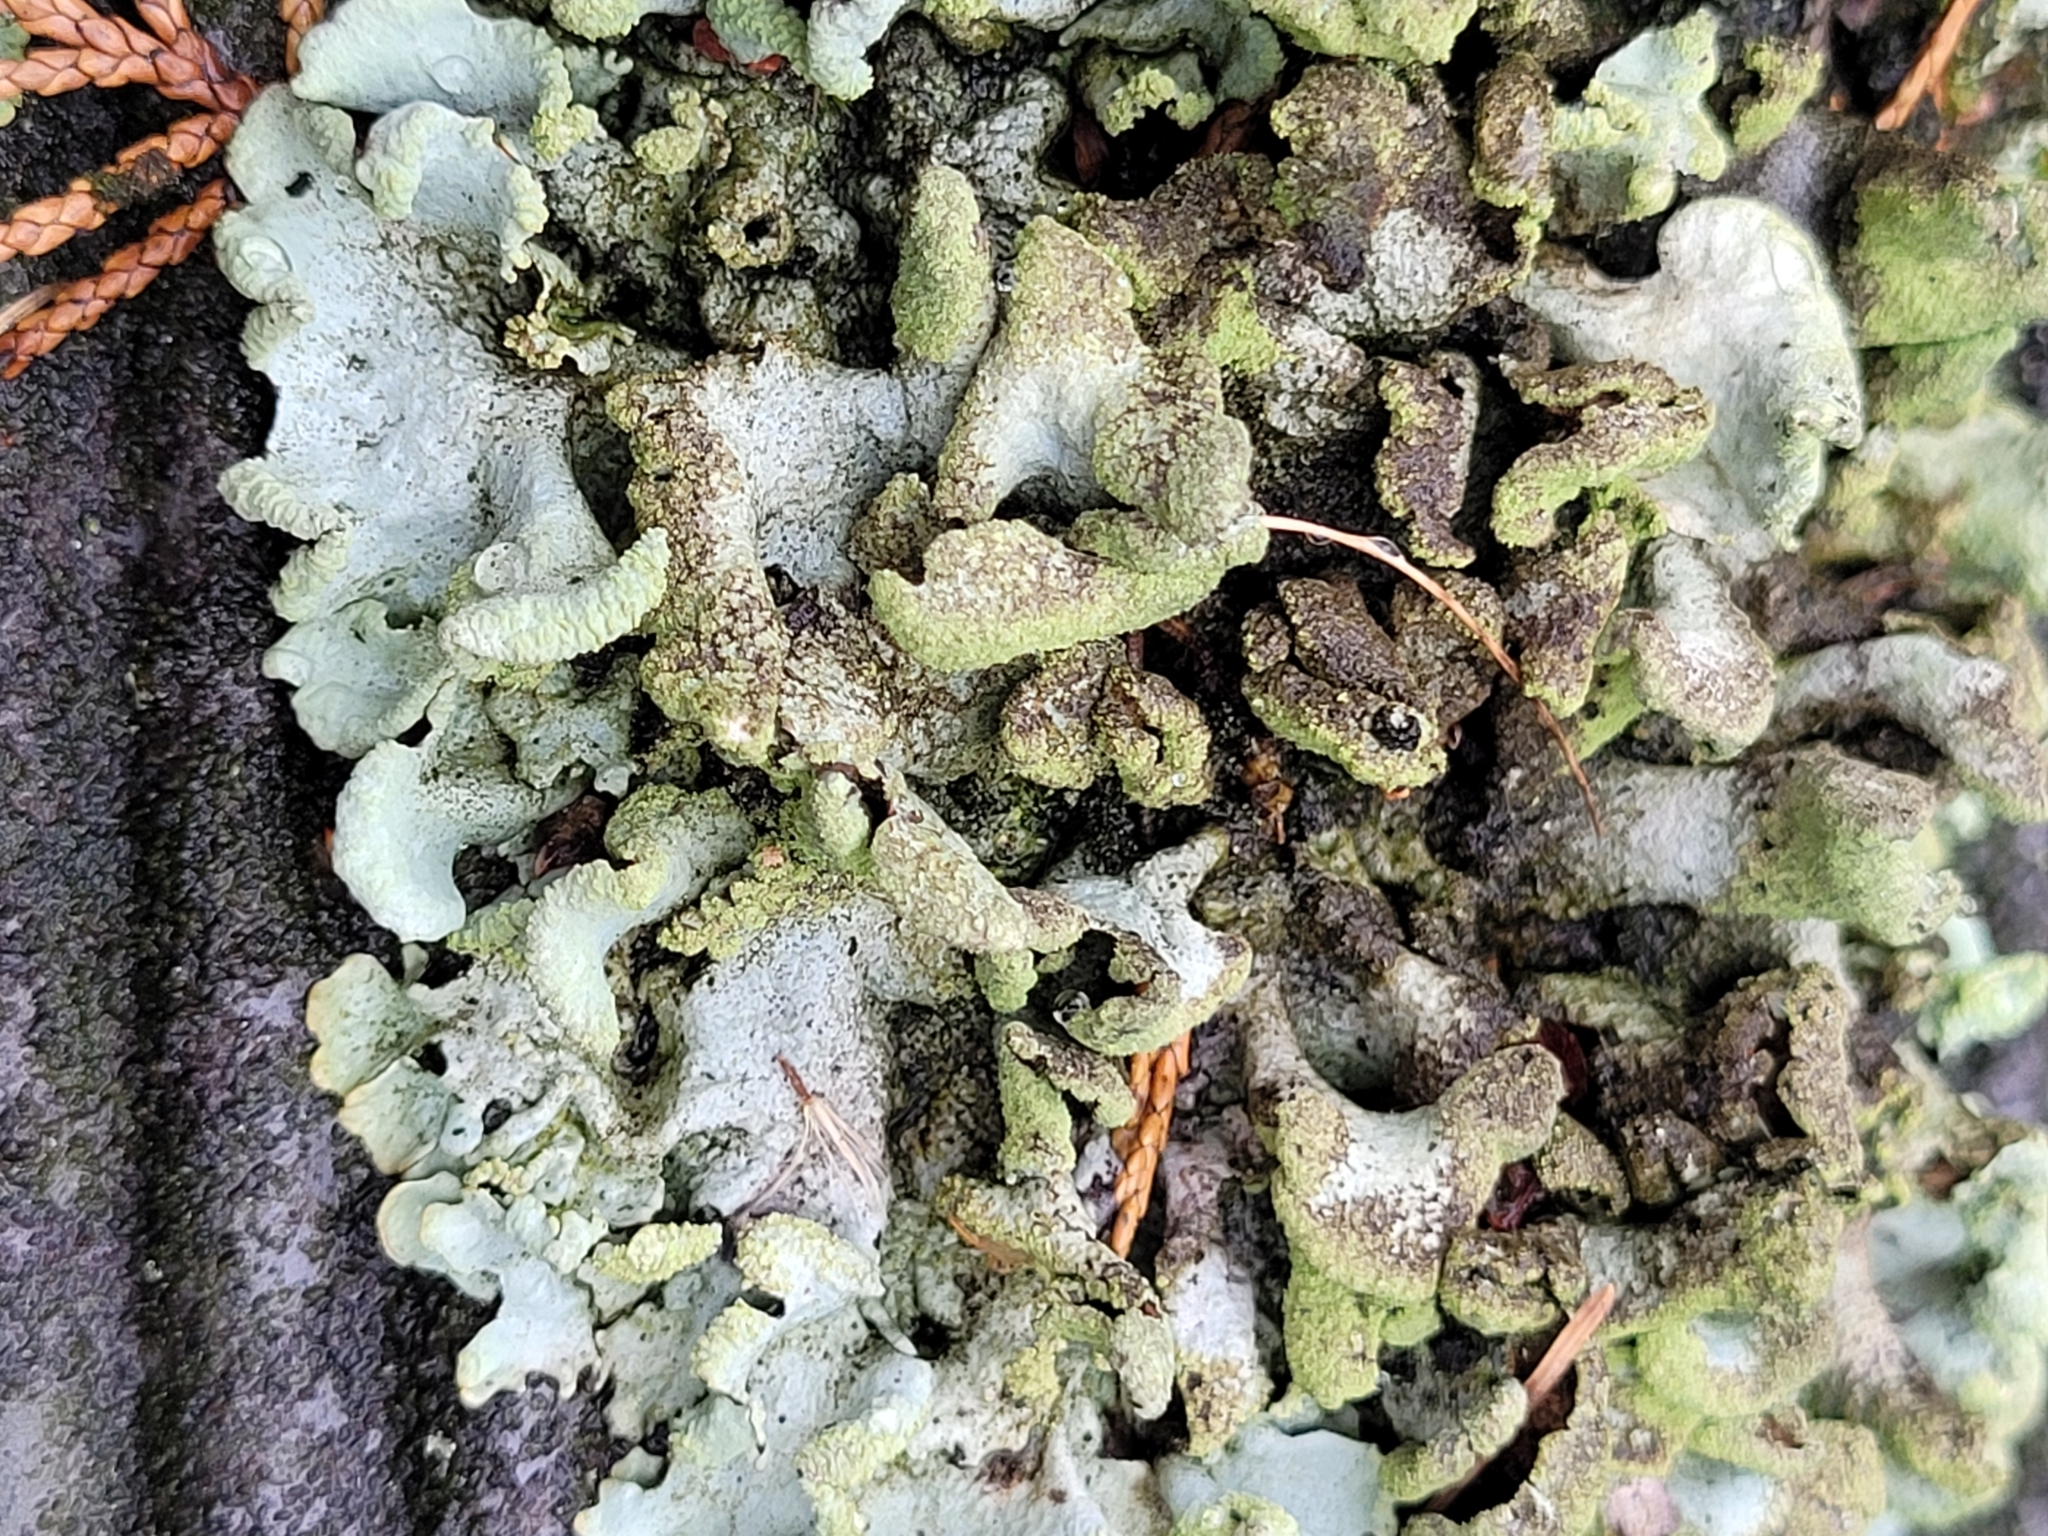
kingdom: Fungi
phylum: Ascomycota
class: Lecanoromycetes
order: Lecanorales
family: Parmeliaceae
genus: Hypotrachyna
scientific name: Hypotrachyna revoluta
